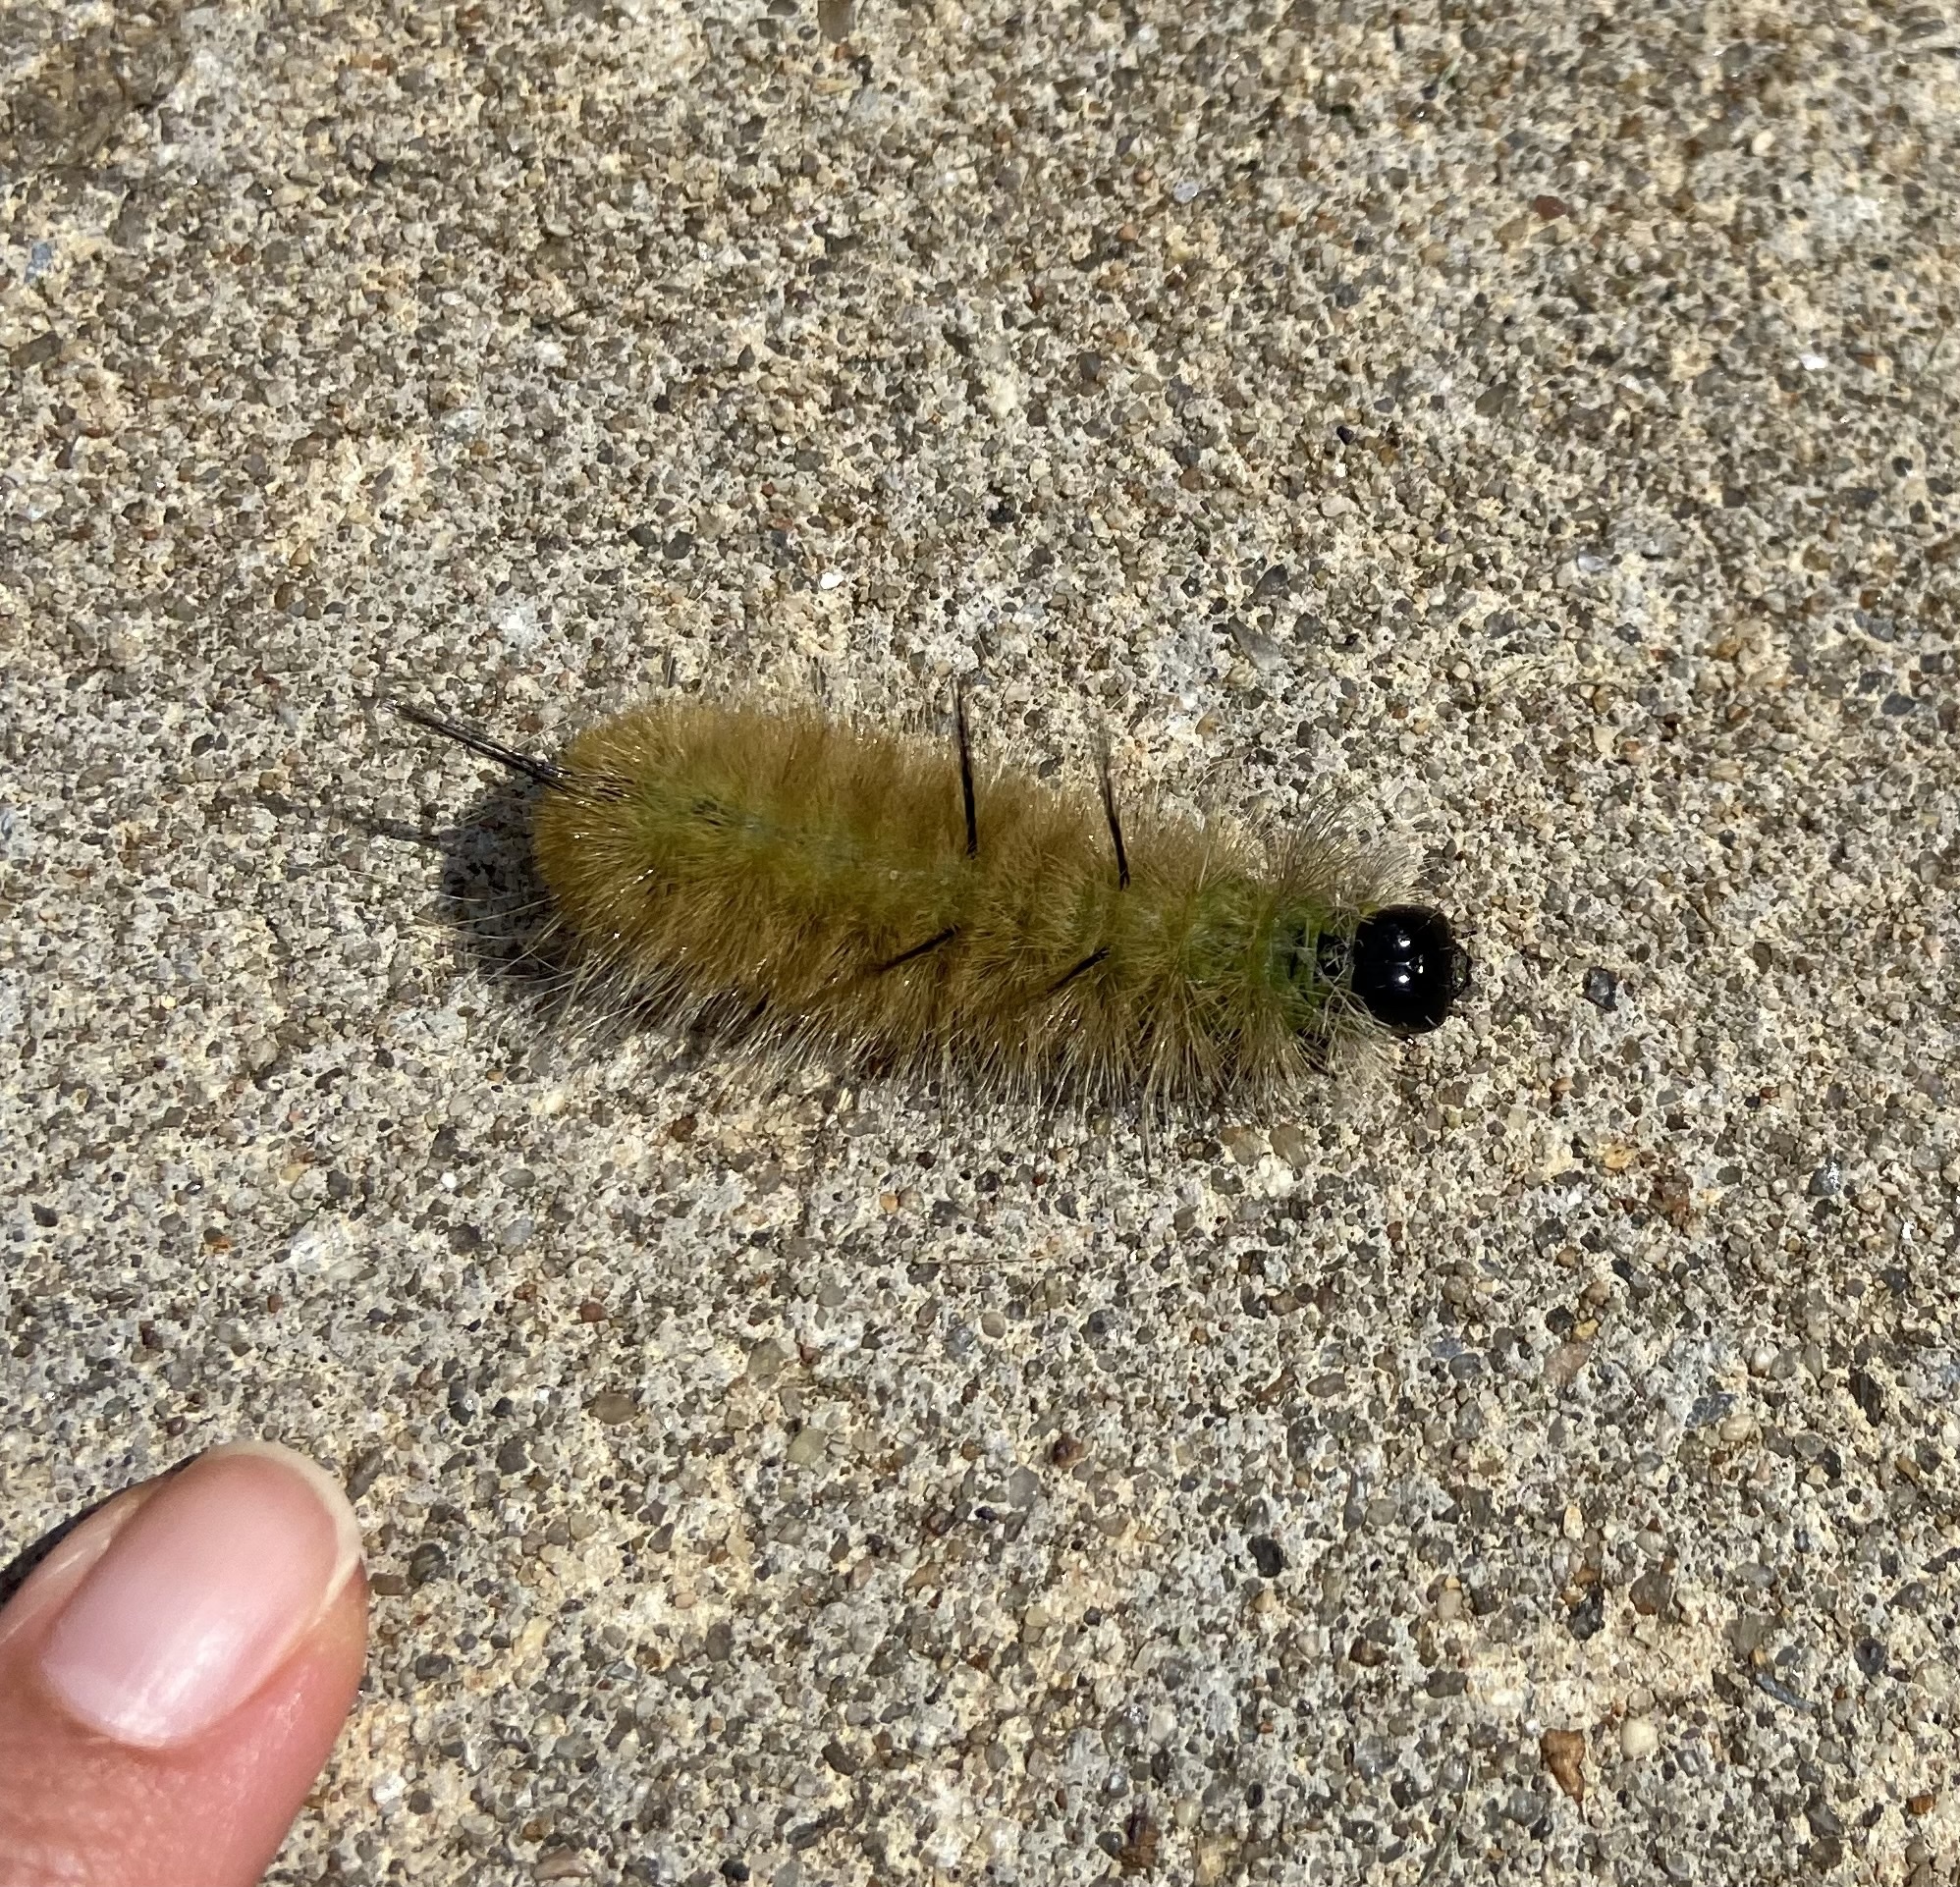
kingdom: Animalia
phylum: Arthropoda
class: Insecta
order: Lepidoptera
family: Noctuidae
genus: Acronicta
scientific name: Acronicta americana
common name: American dagger
